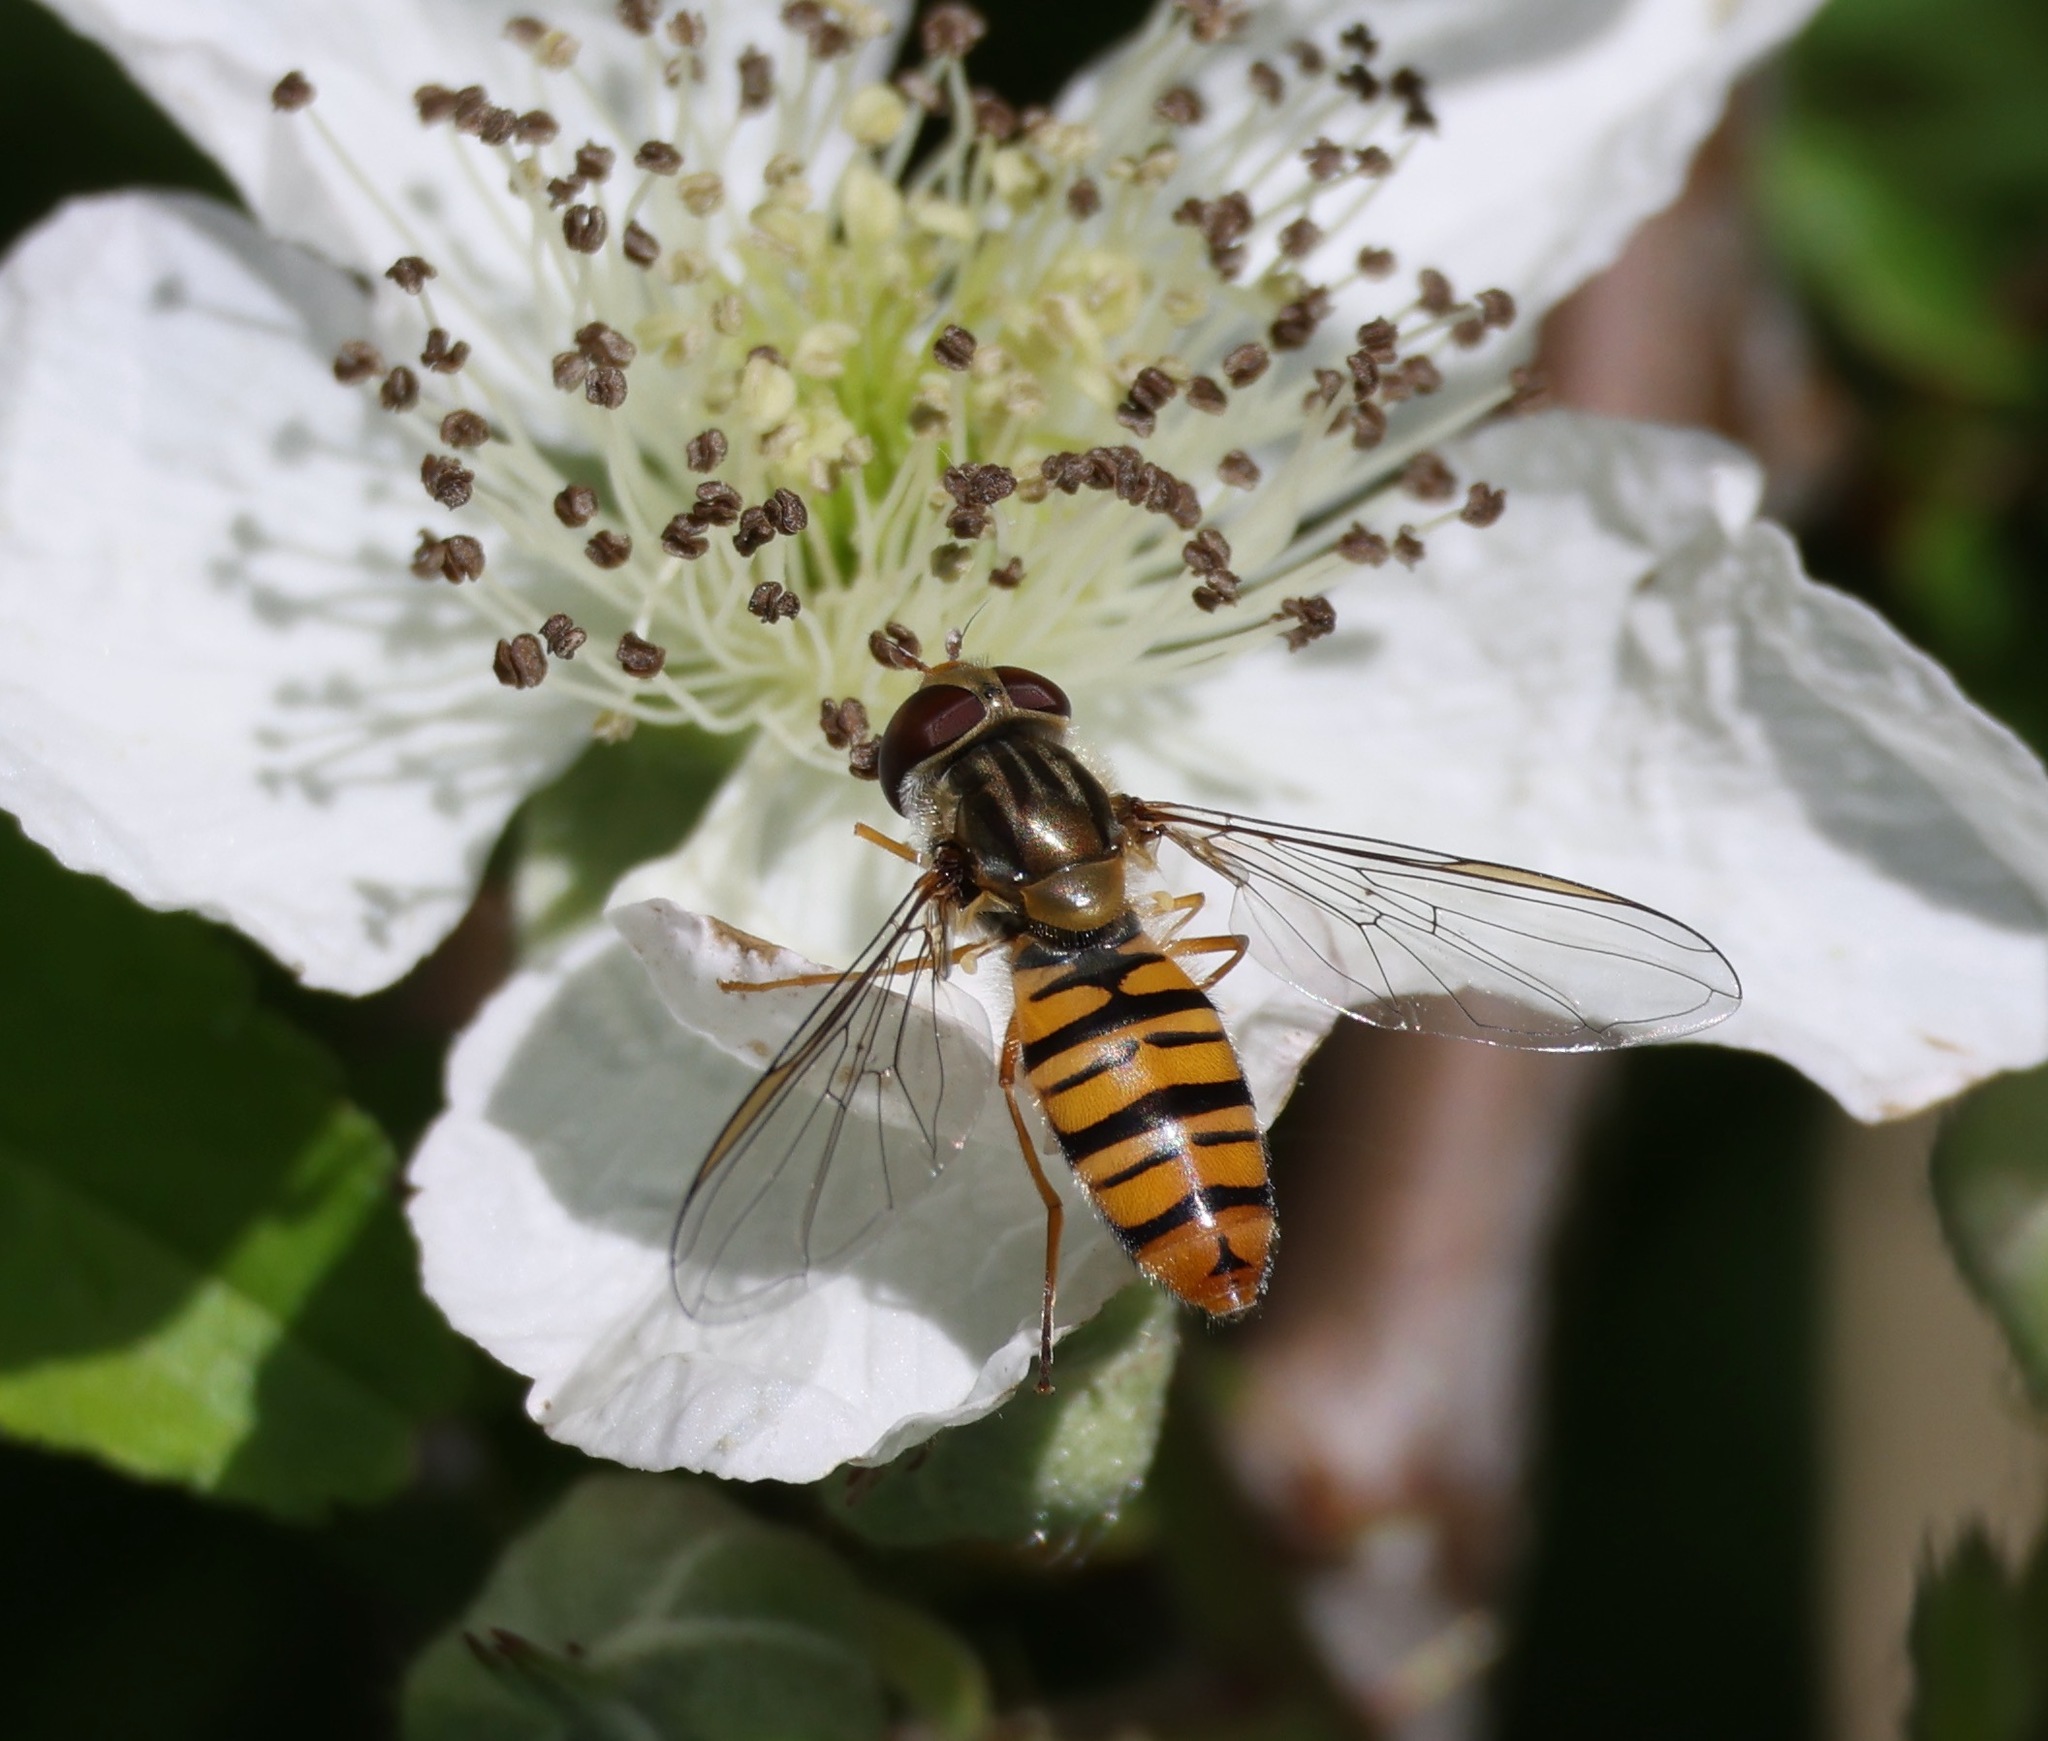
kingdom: Animalia
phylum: Arthropoda
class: Insecta
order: Diptera
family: Syrphidae
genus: Episyrphus
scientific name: Episyrphus balteatus
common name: Marmalade hoverfly
